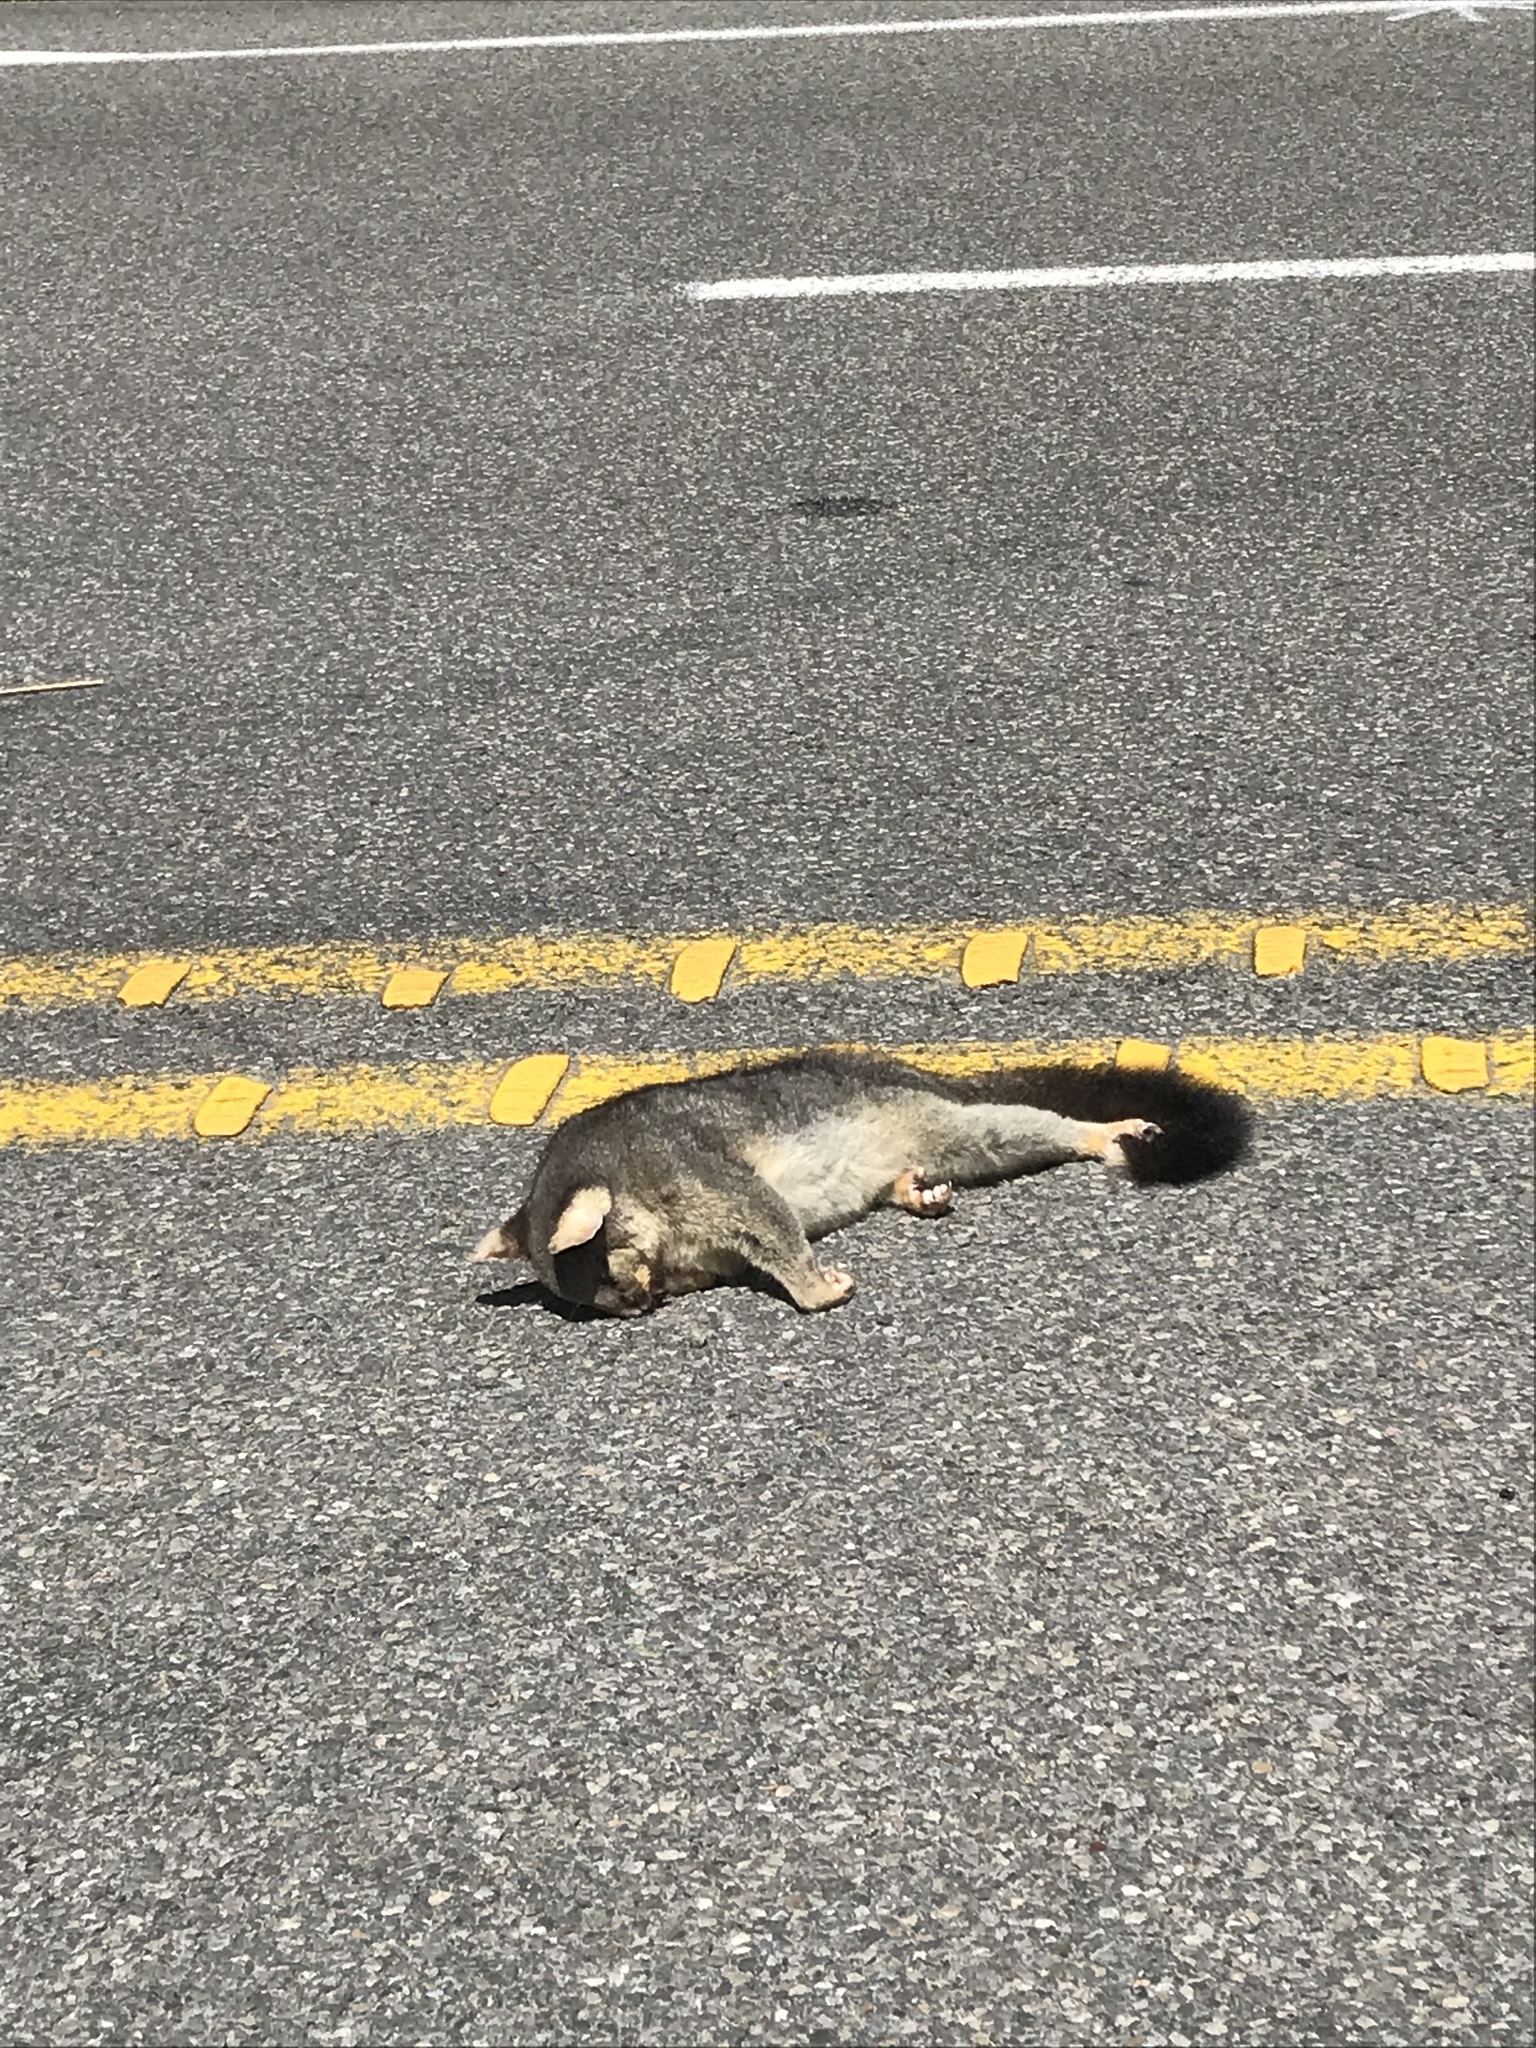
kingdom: Animalia
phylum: Chordata
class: Mammalia
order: Diprotodontia
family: Phalangeridae
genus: Trichosurus
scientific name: Trichosurus vulpecula
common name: Common brushtail
